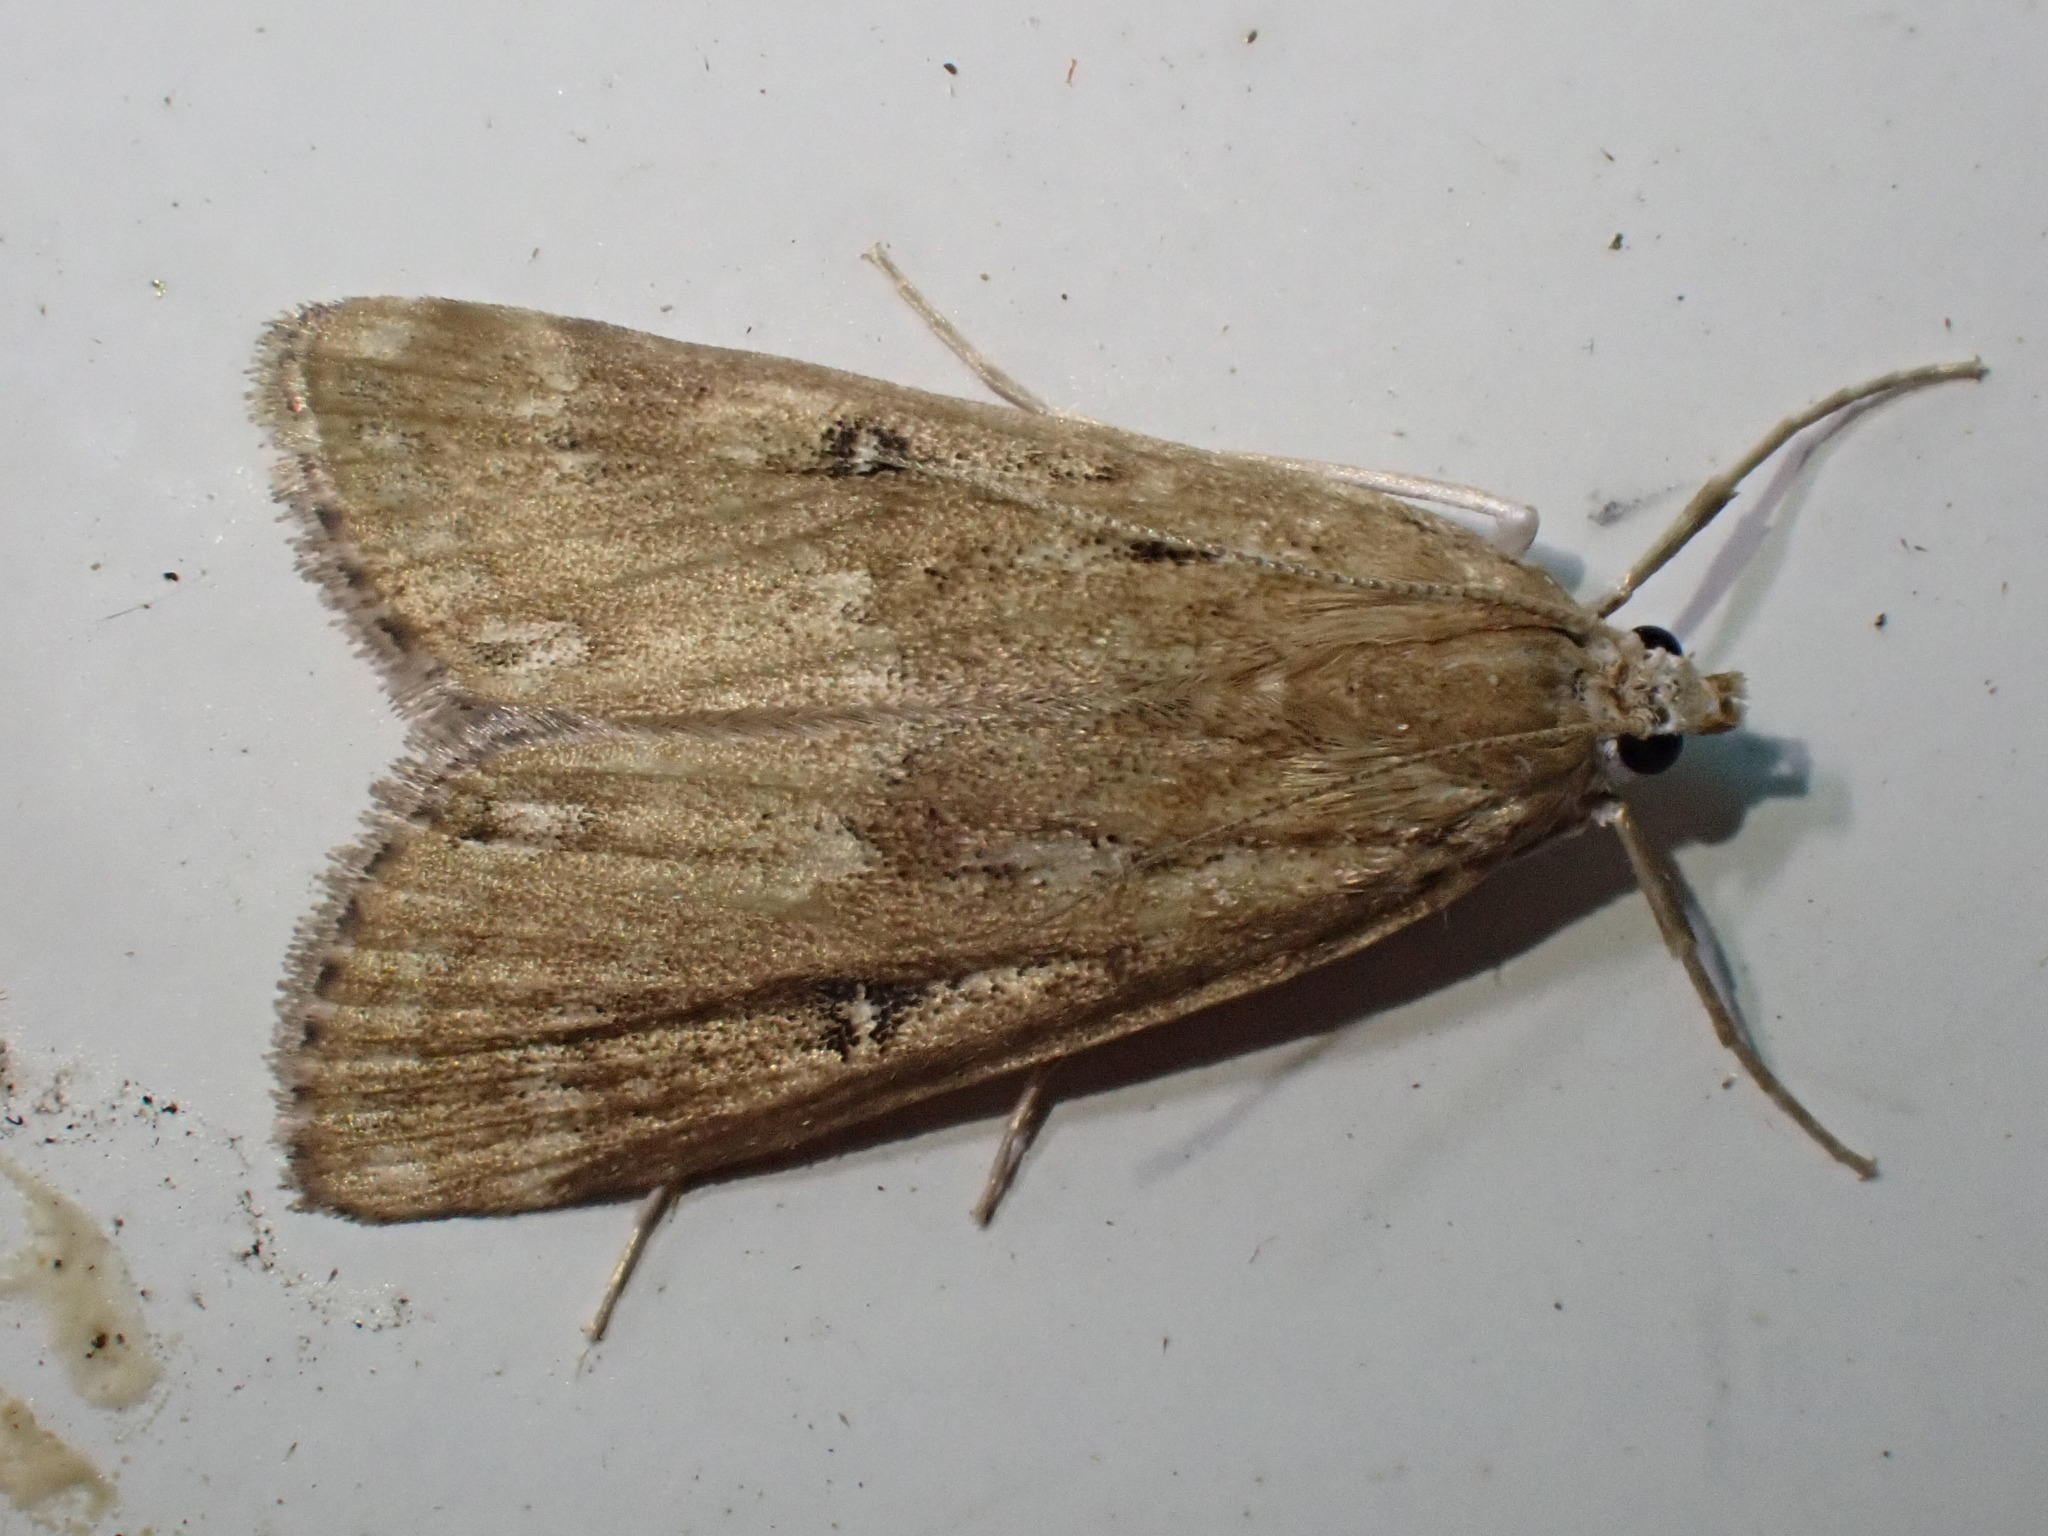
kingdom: Animalia
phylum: Arthropoda
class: Insecta
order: Lepidoptera
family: Crambidae
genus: Parapoynx
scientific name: Parapoynx stratiotata
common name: Ringed china-mark
